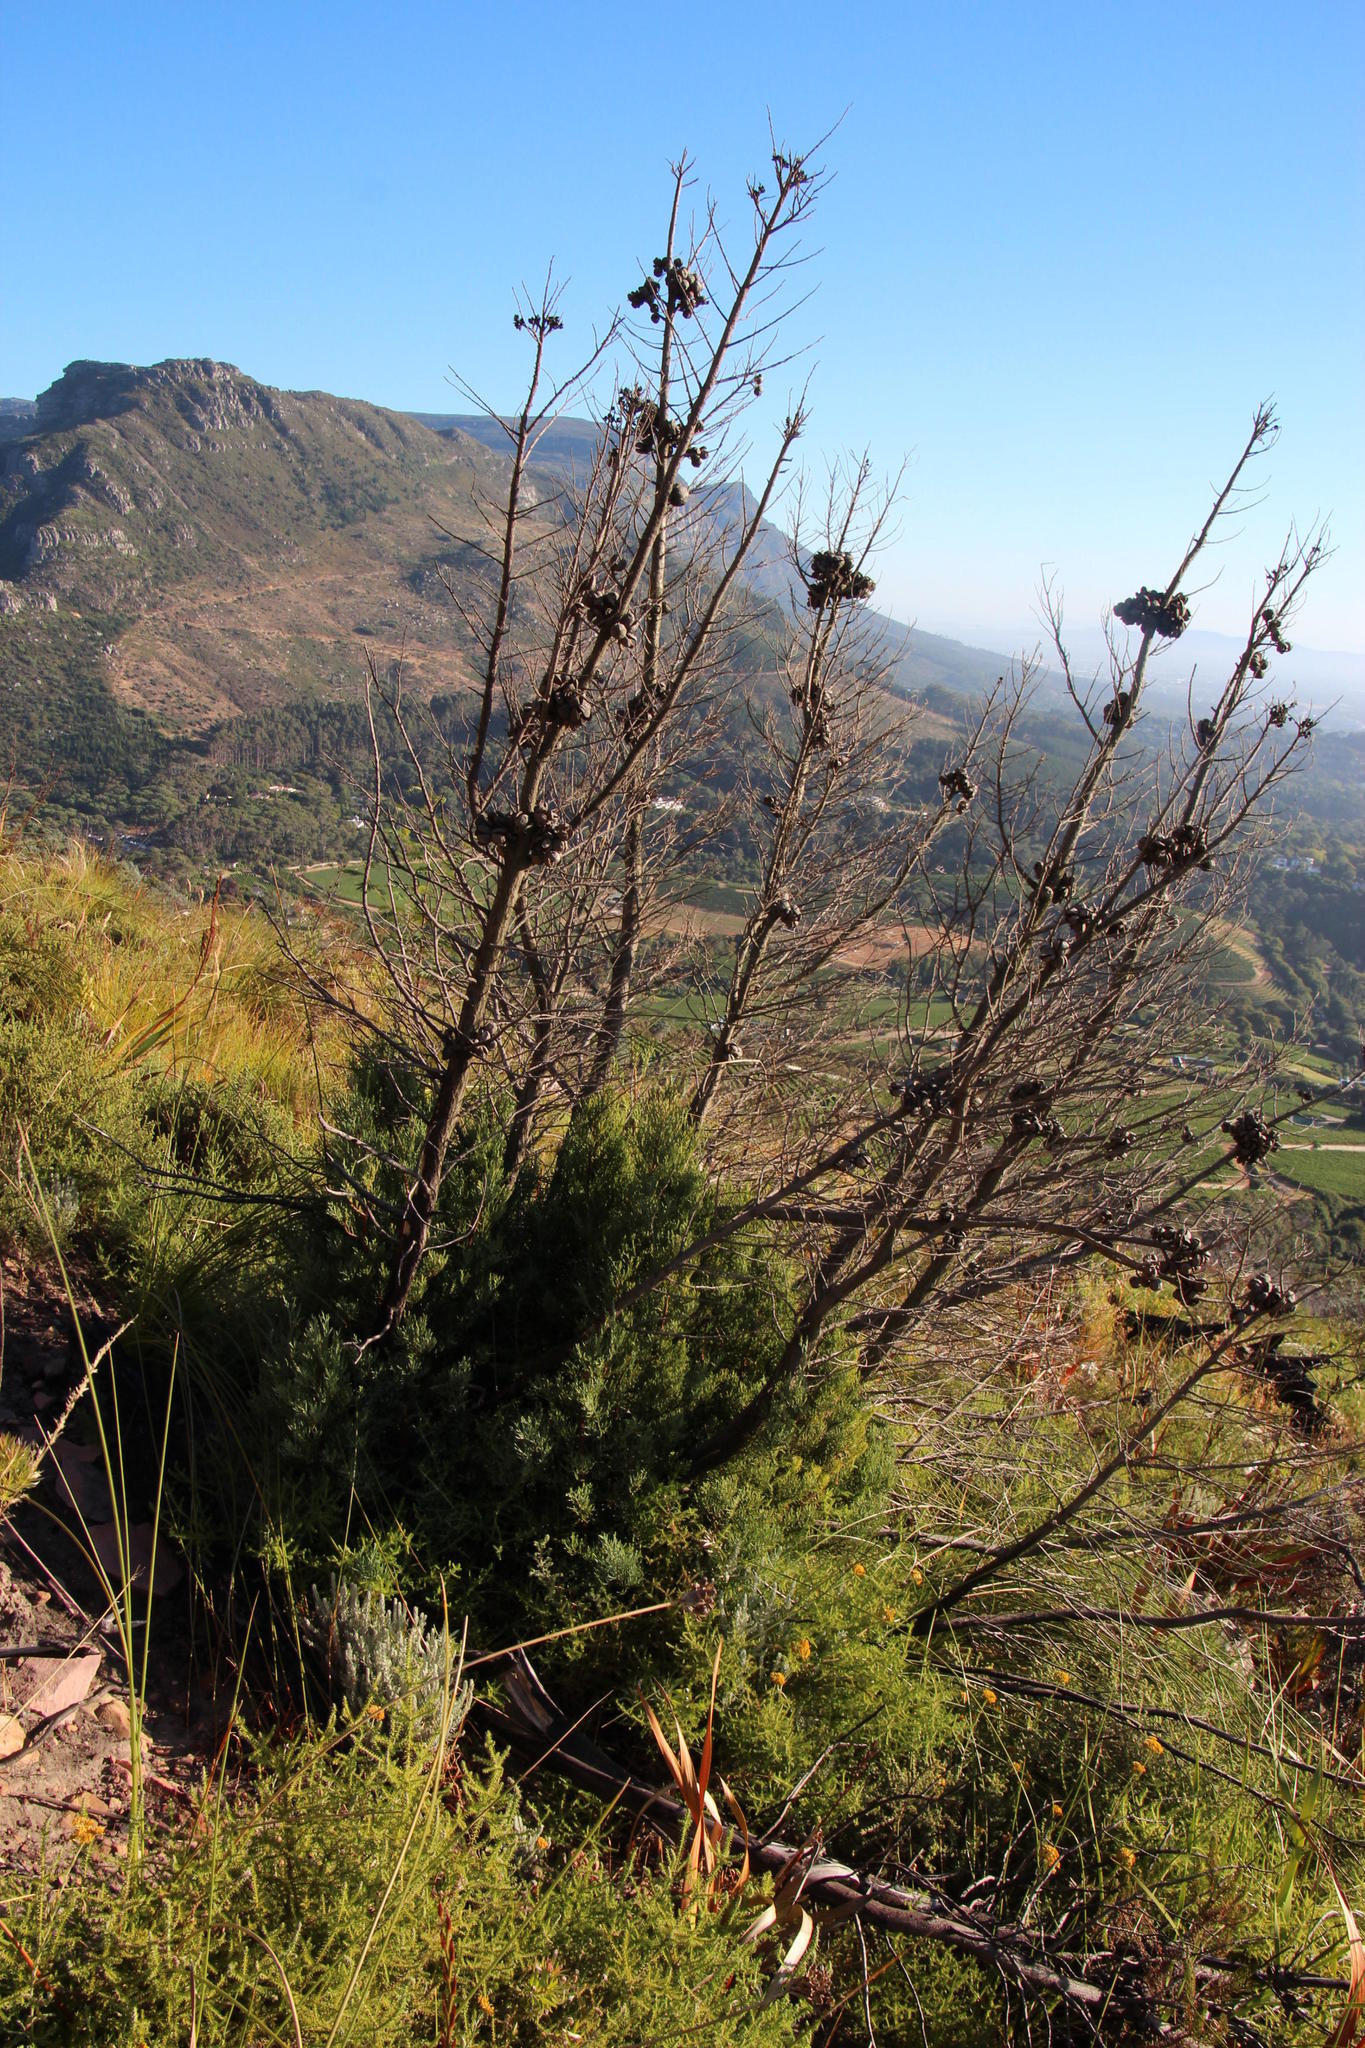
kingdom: Plantae
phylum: Tracheophyta
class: Pinopsida
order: Pinales
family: Cupressaceae
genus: Widdringtonia
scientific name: Widdringtonia nodiflora
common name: Cape cypress
